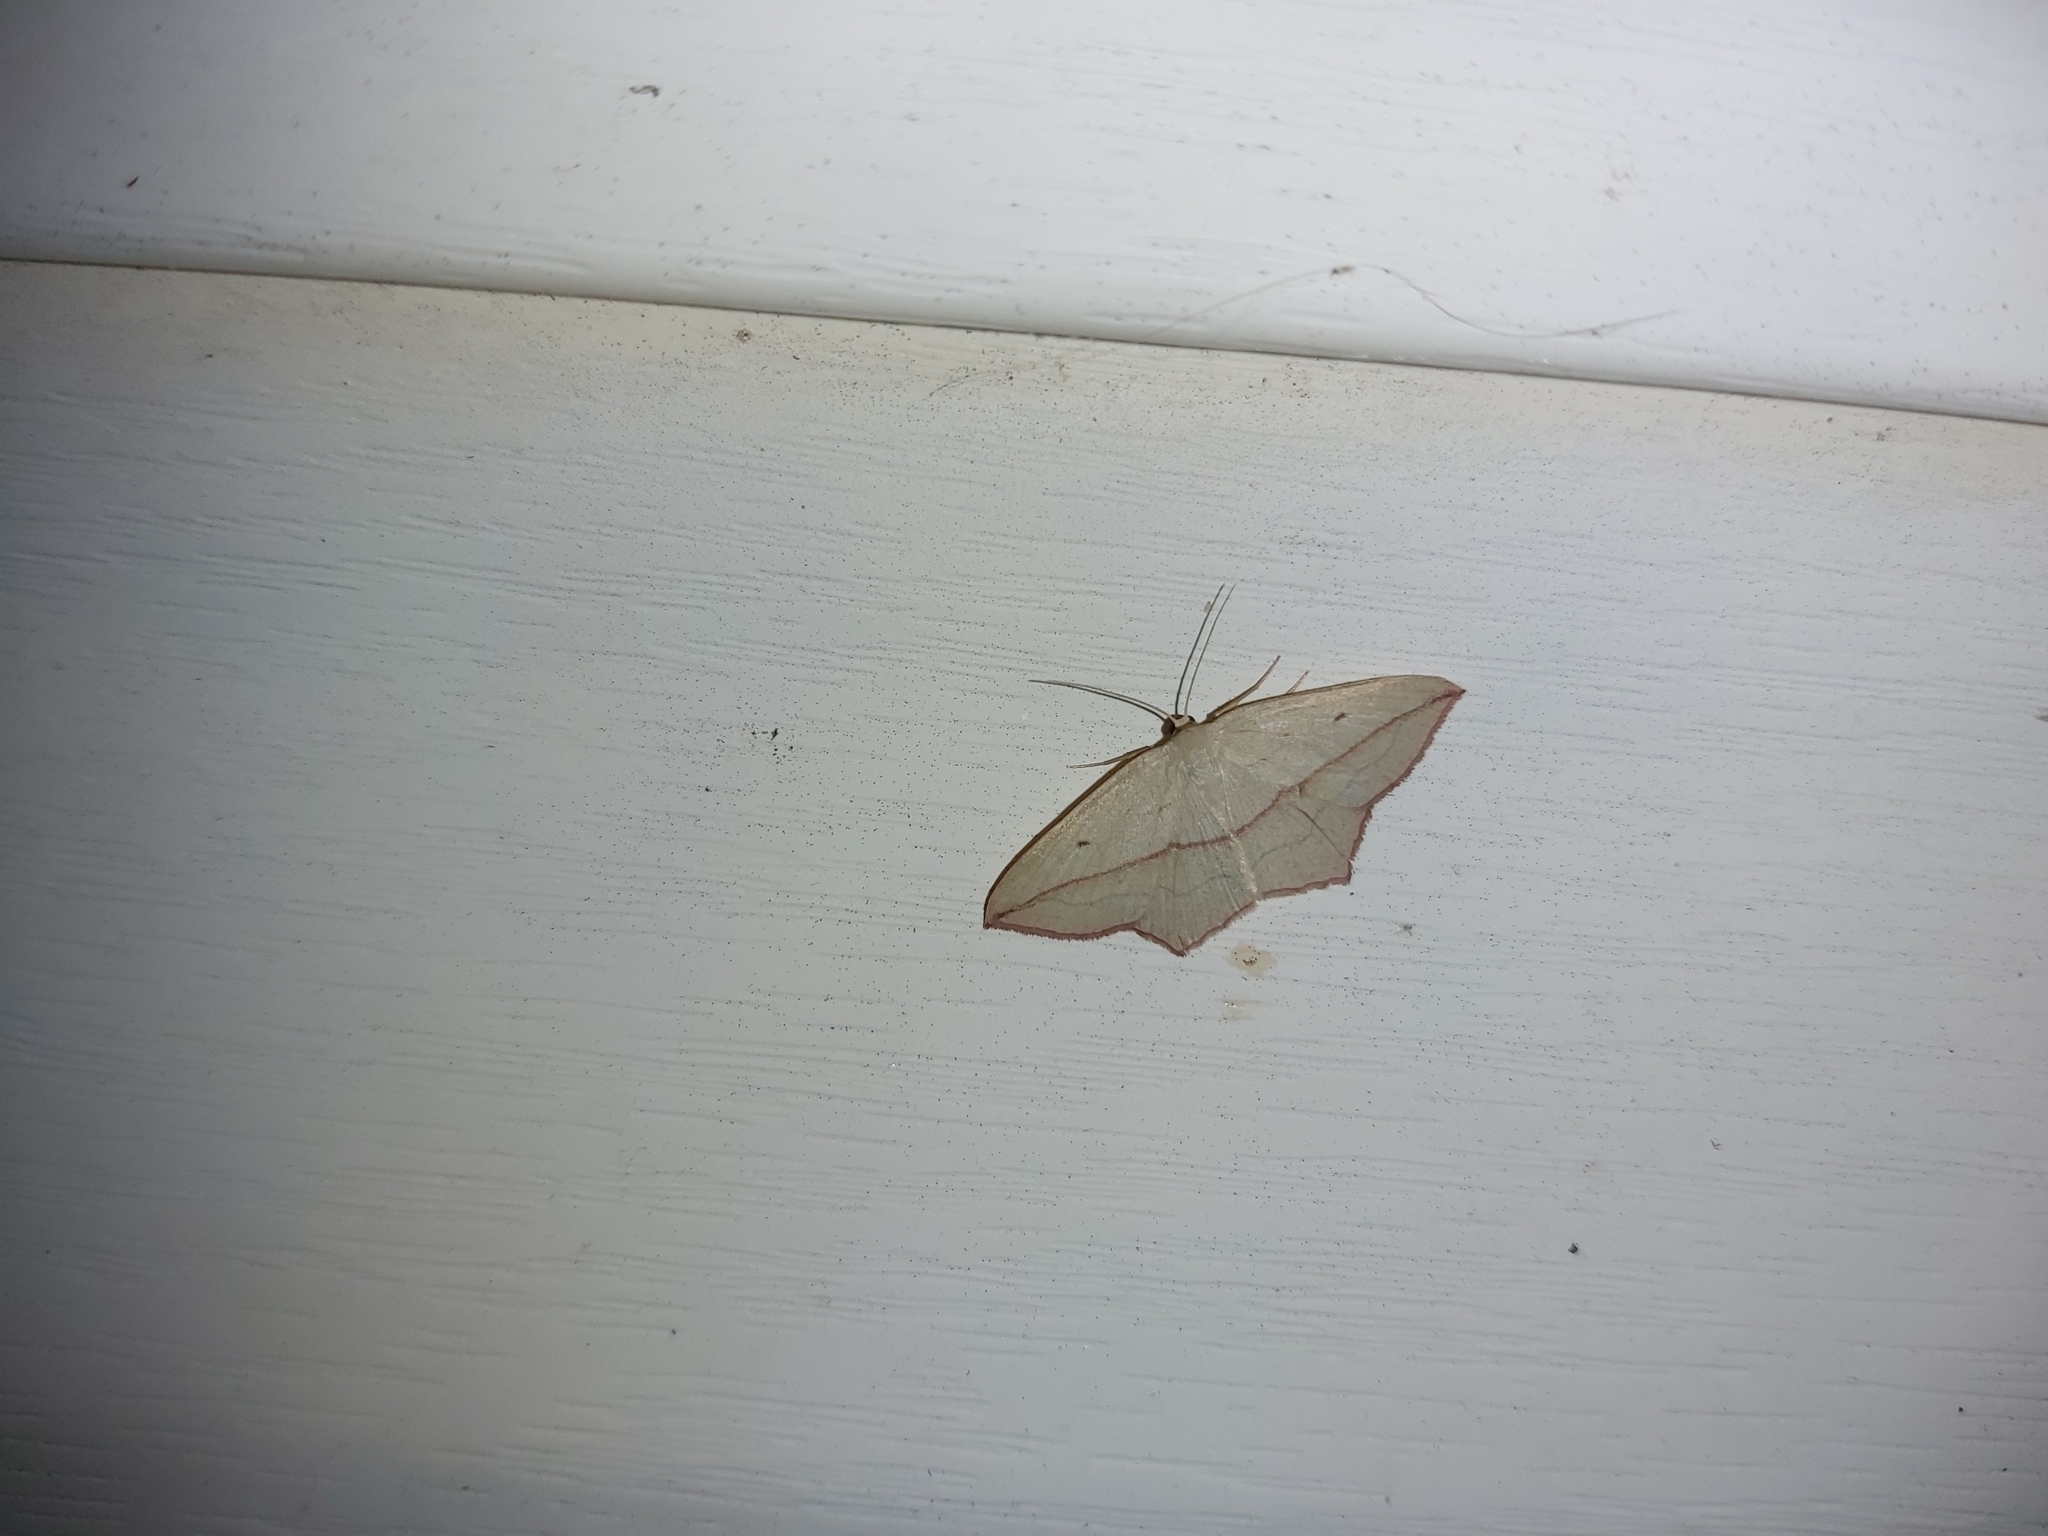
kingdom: Animalia
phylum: Arthropoda
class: Insecta
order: Lepidoptera
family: Geometridae
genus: Timandra
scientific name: Timandra comae
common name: Blood-vein
